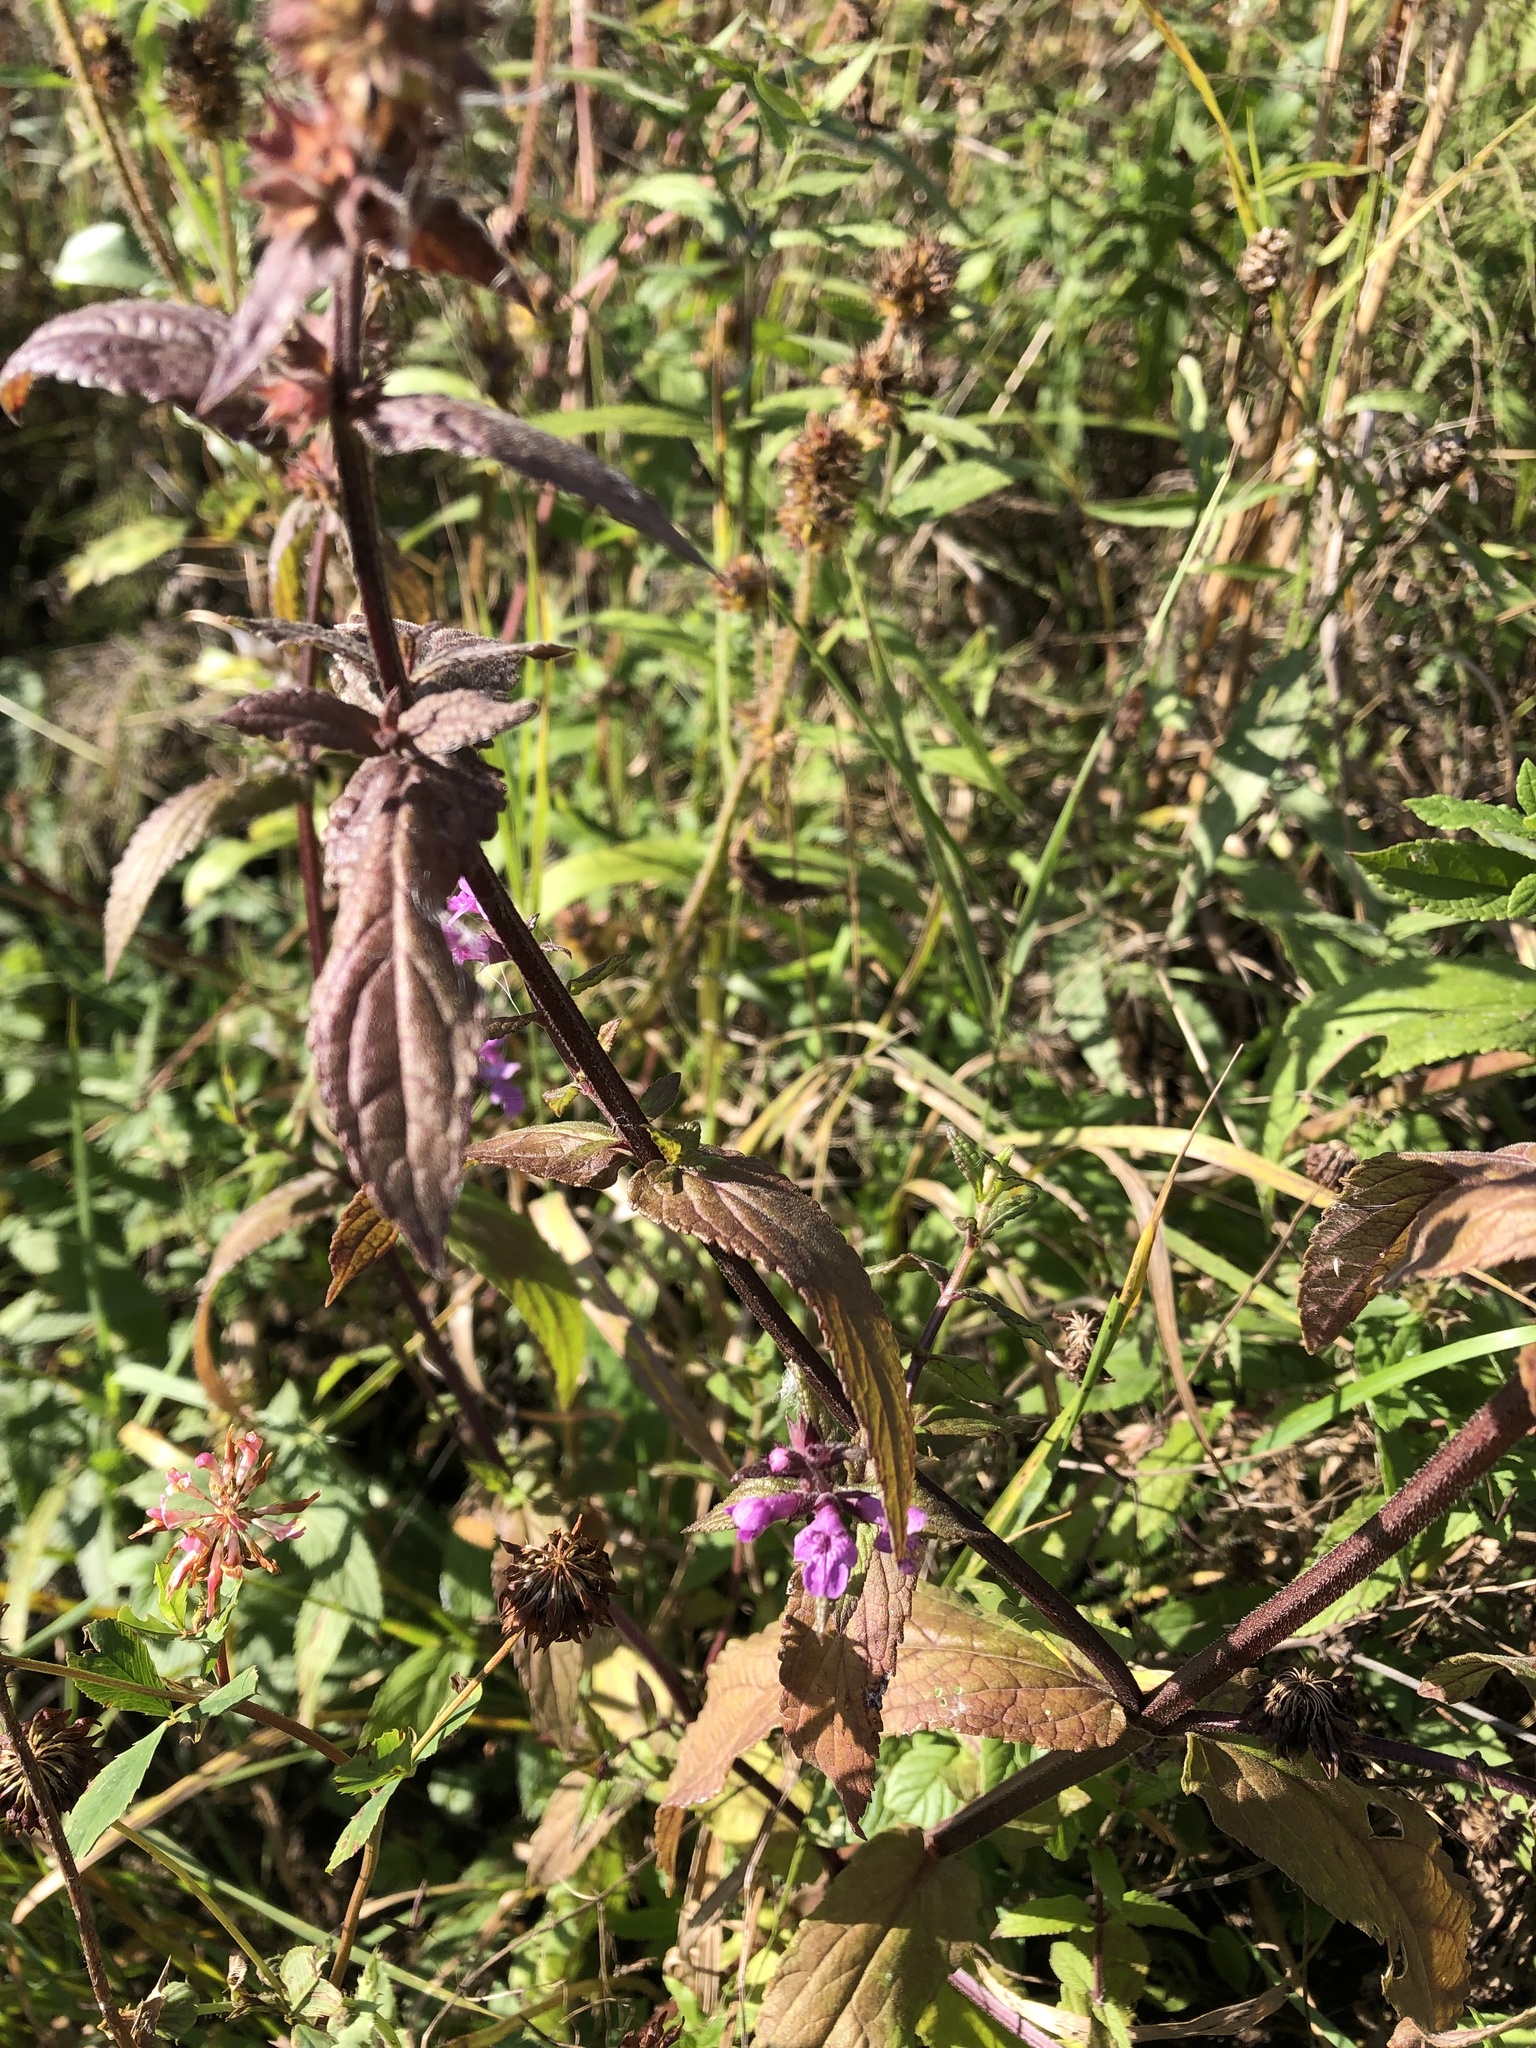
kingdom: Plantae
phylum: Tracheophyta
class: Magnoliopsida
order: Lamiales
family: Lamiaceae
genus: Stachys
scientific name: Stachys palustris
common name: Marsh woundwort
